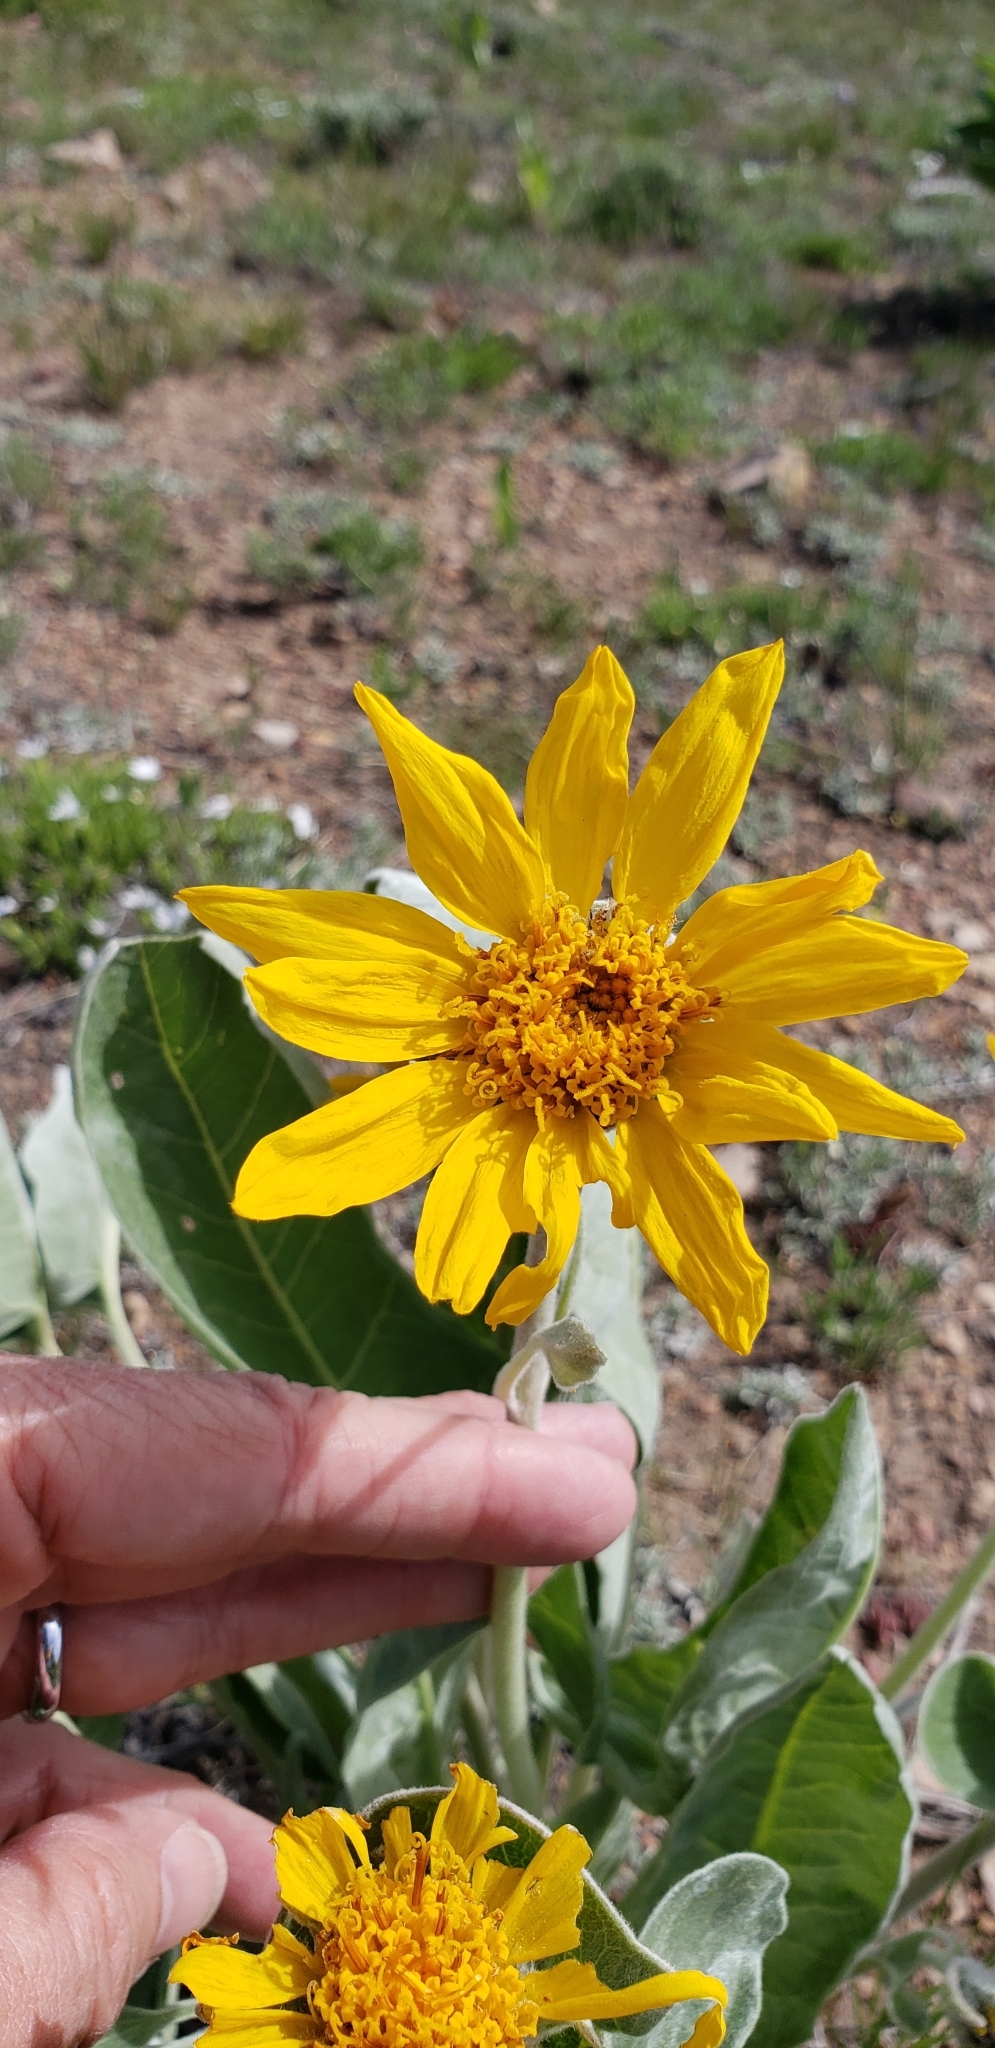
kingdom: Plantae
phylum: Tracheophyta
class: Magnoliopsida
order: Asterales
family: Asteraceae
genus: Wyethia
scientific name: Wyethia sagittata
